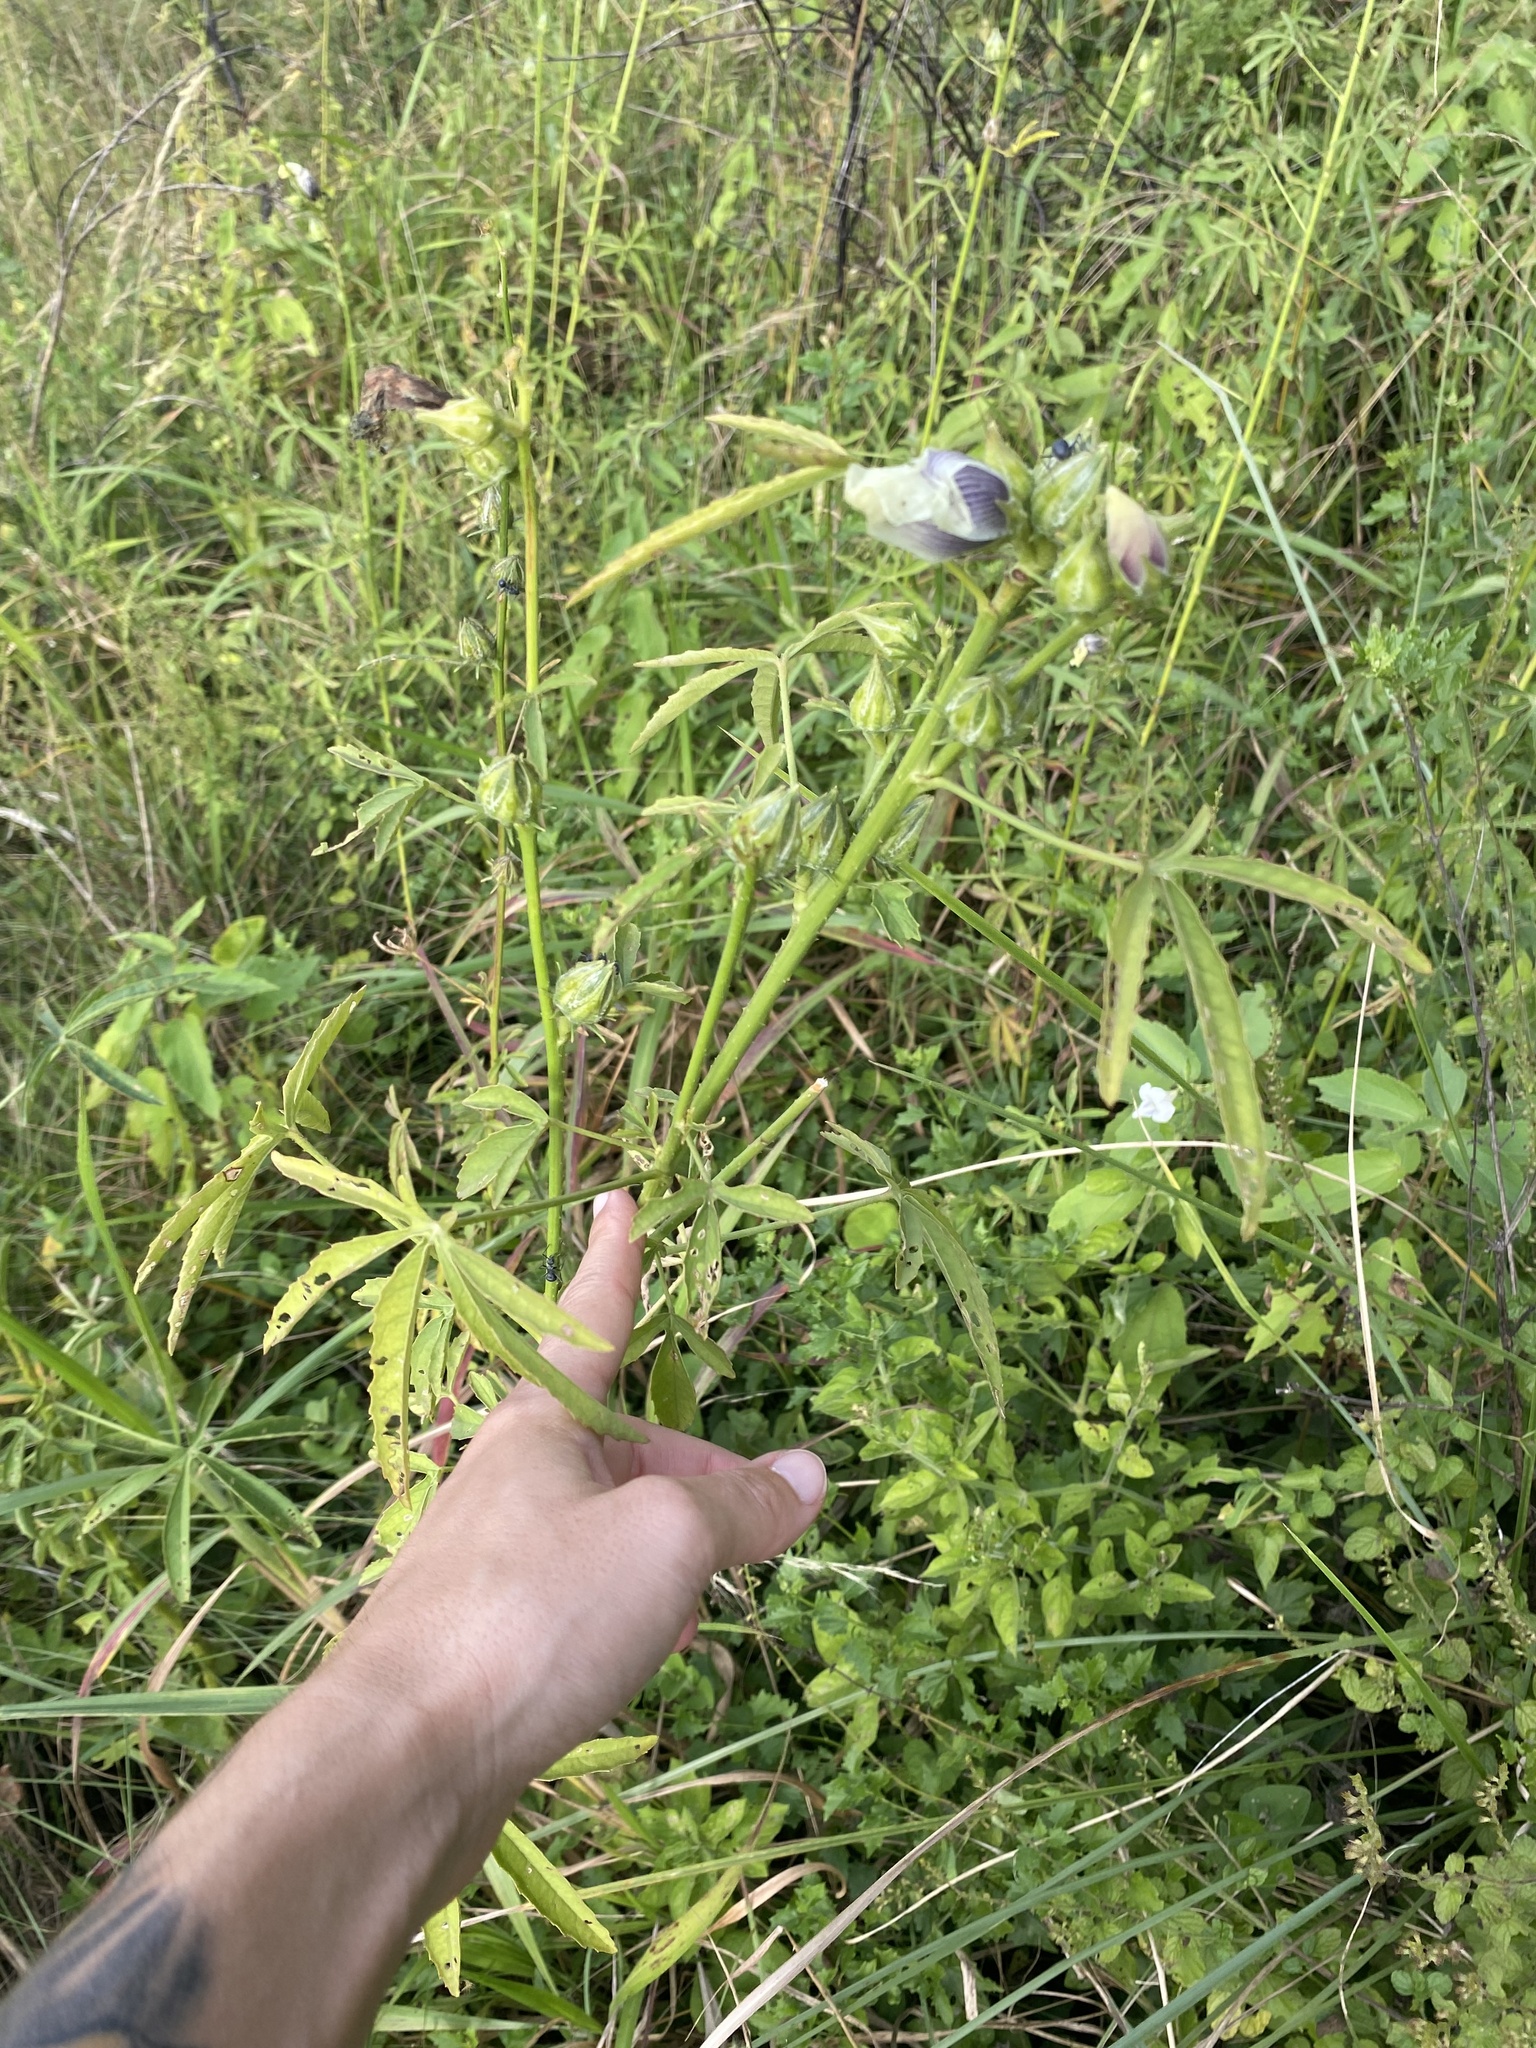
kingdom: Plantae
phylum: Tracheophyta
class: Magnoliopsida
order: Malvales
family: Malvaceae
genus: Hibiscus
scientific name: Hibiscus cannabinus
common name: Brown indianhemp
